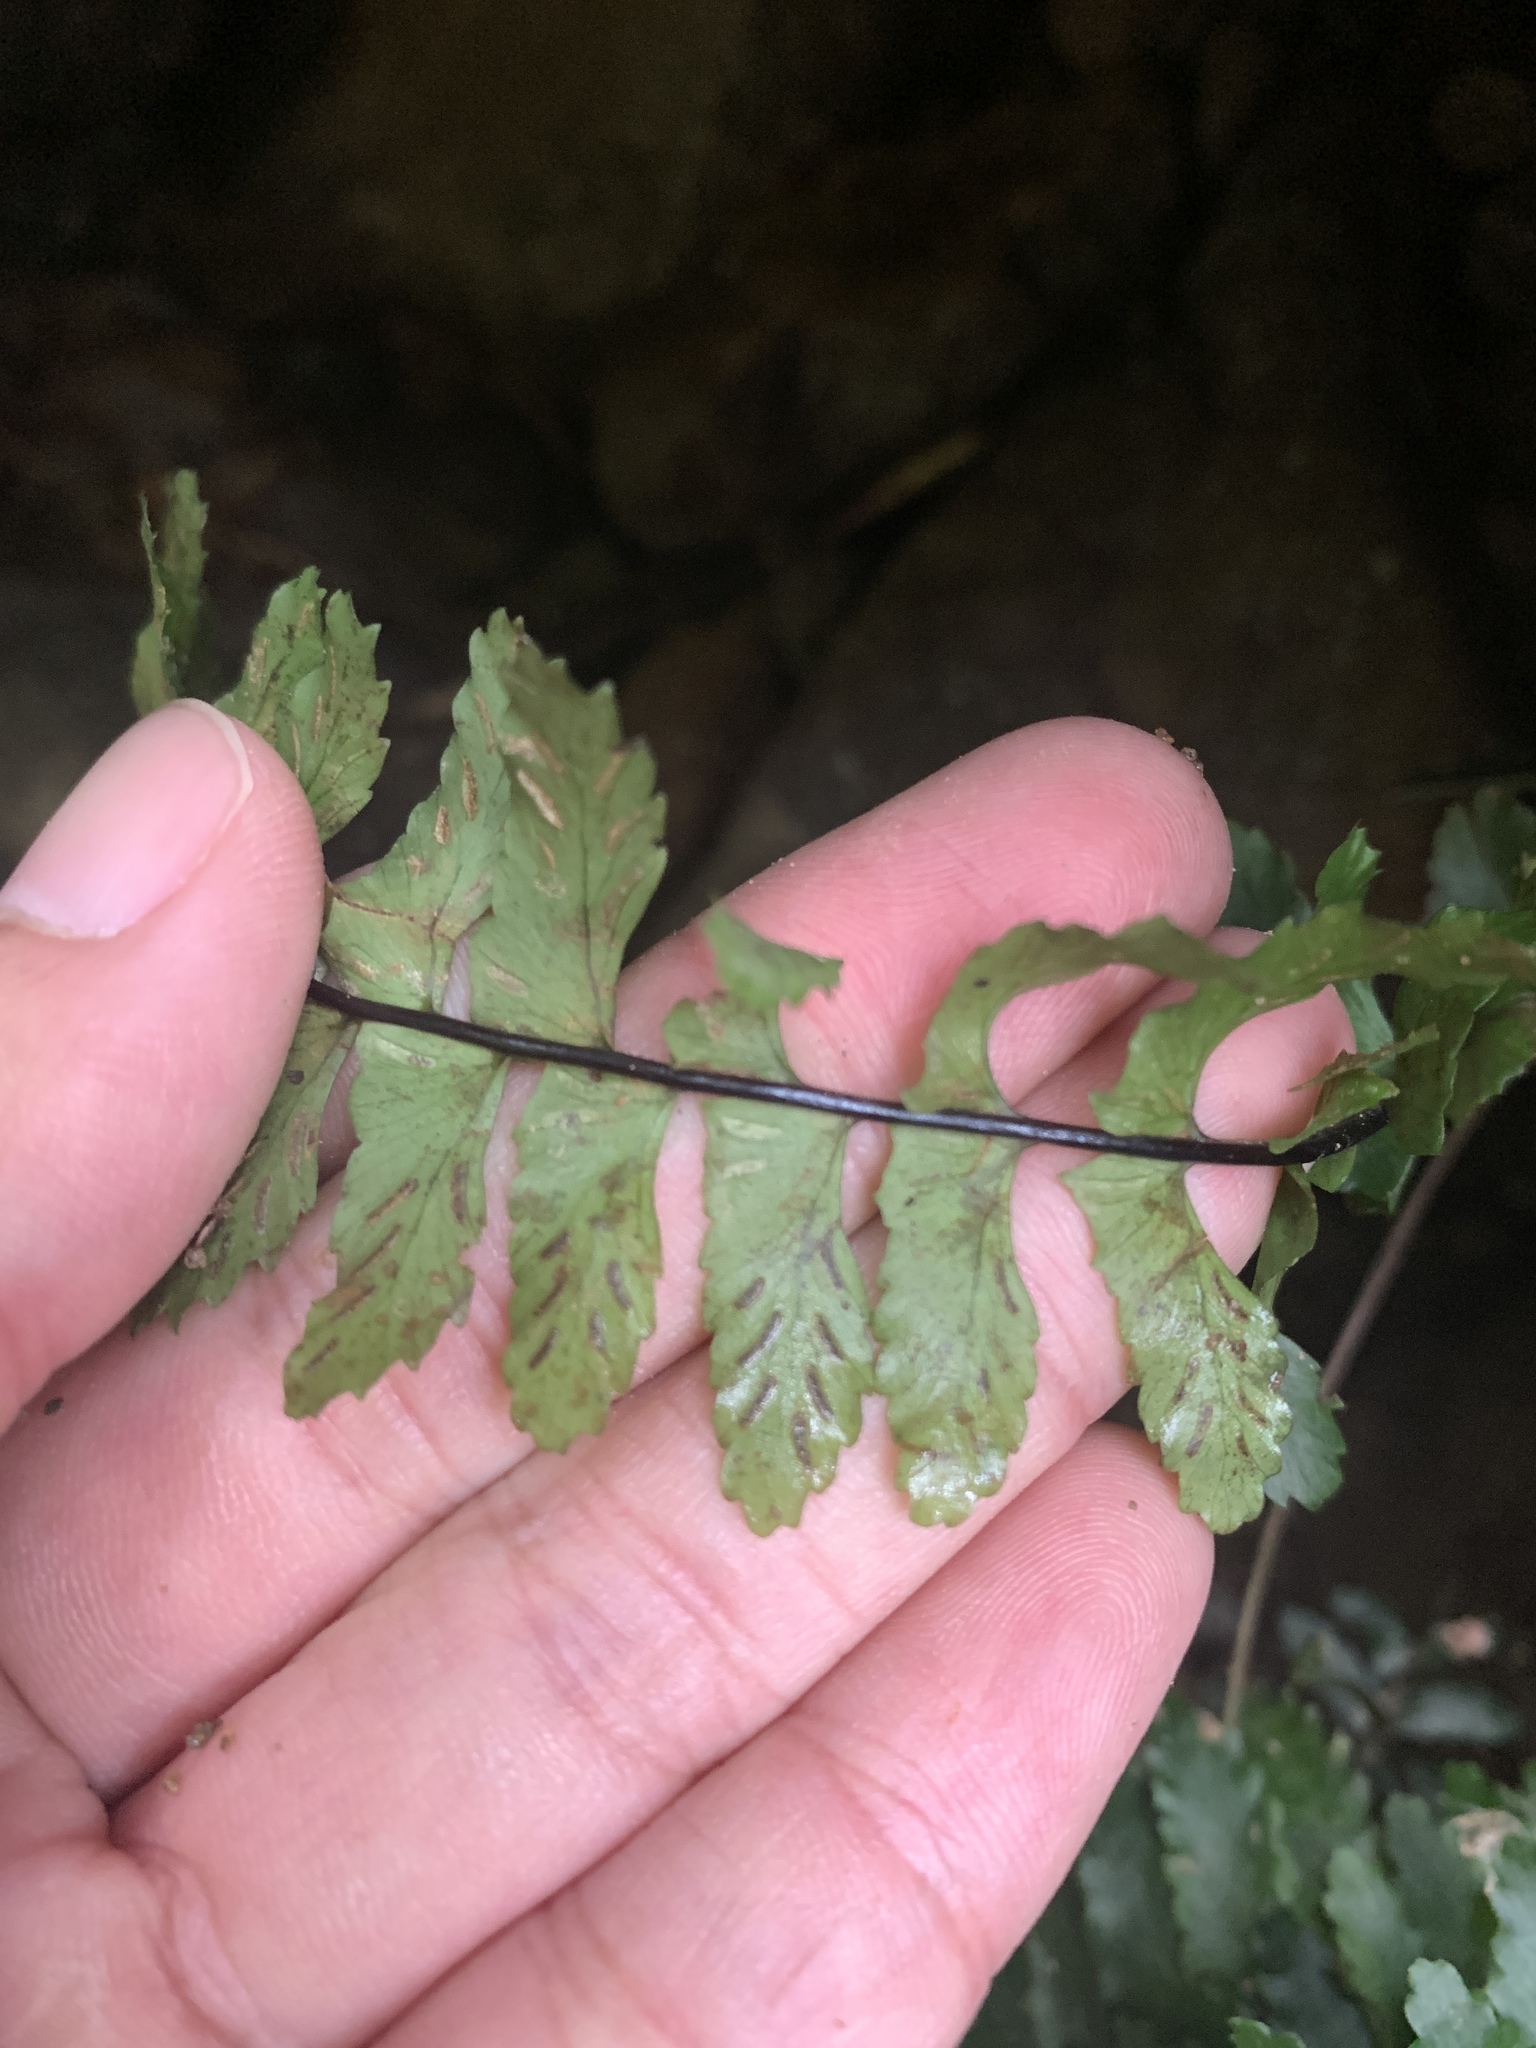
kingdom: Plantae
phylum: Tracheophyta
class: Polypodiopsida
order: Polypodiales
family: Aspleniaceae
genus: Hymenasplenium
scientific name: Hymenasplenium apogamum
